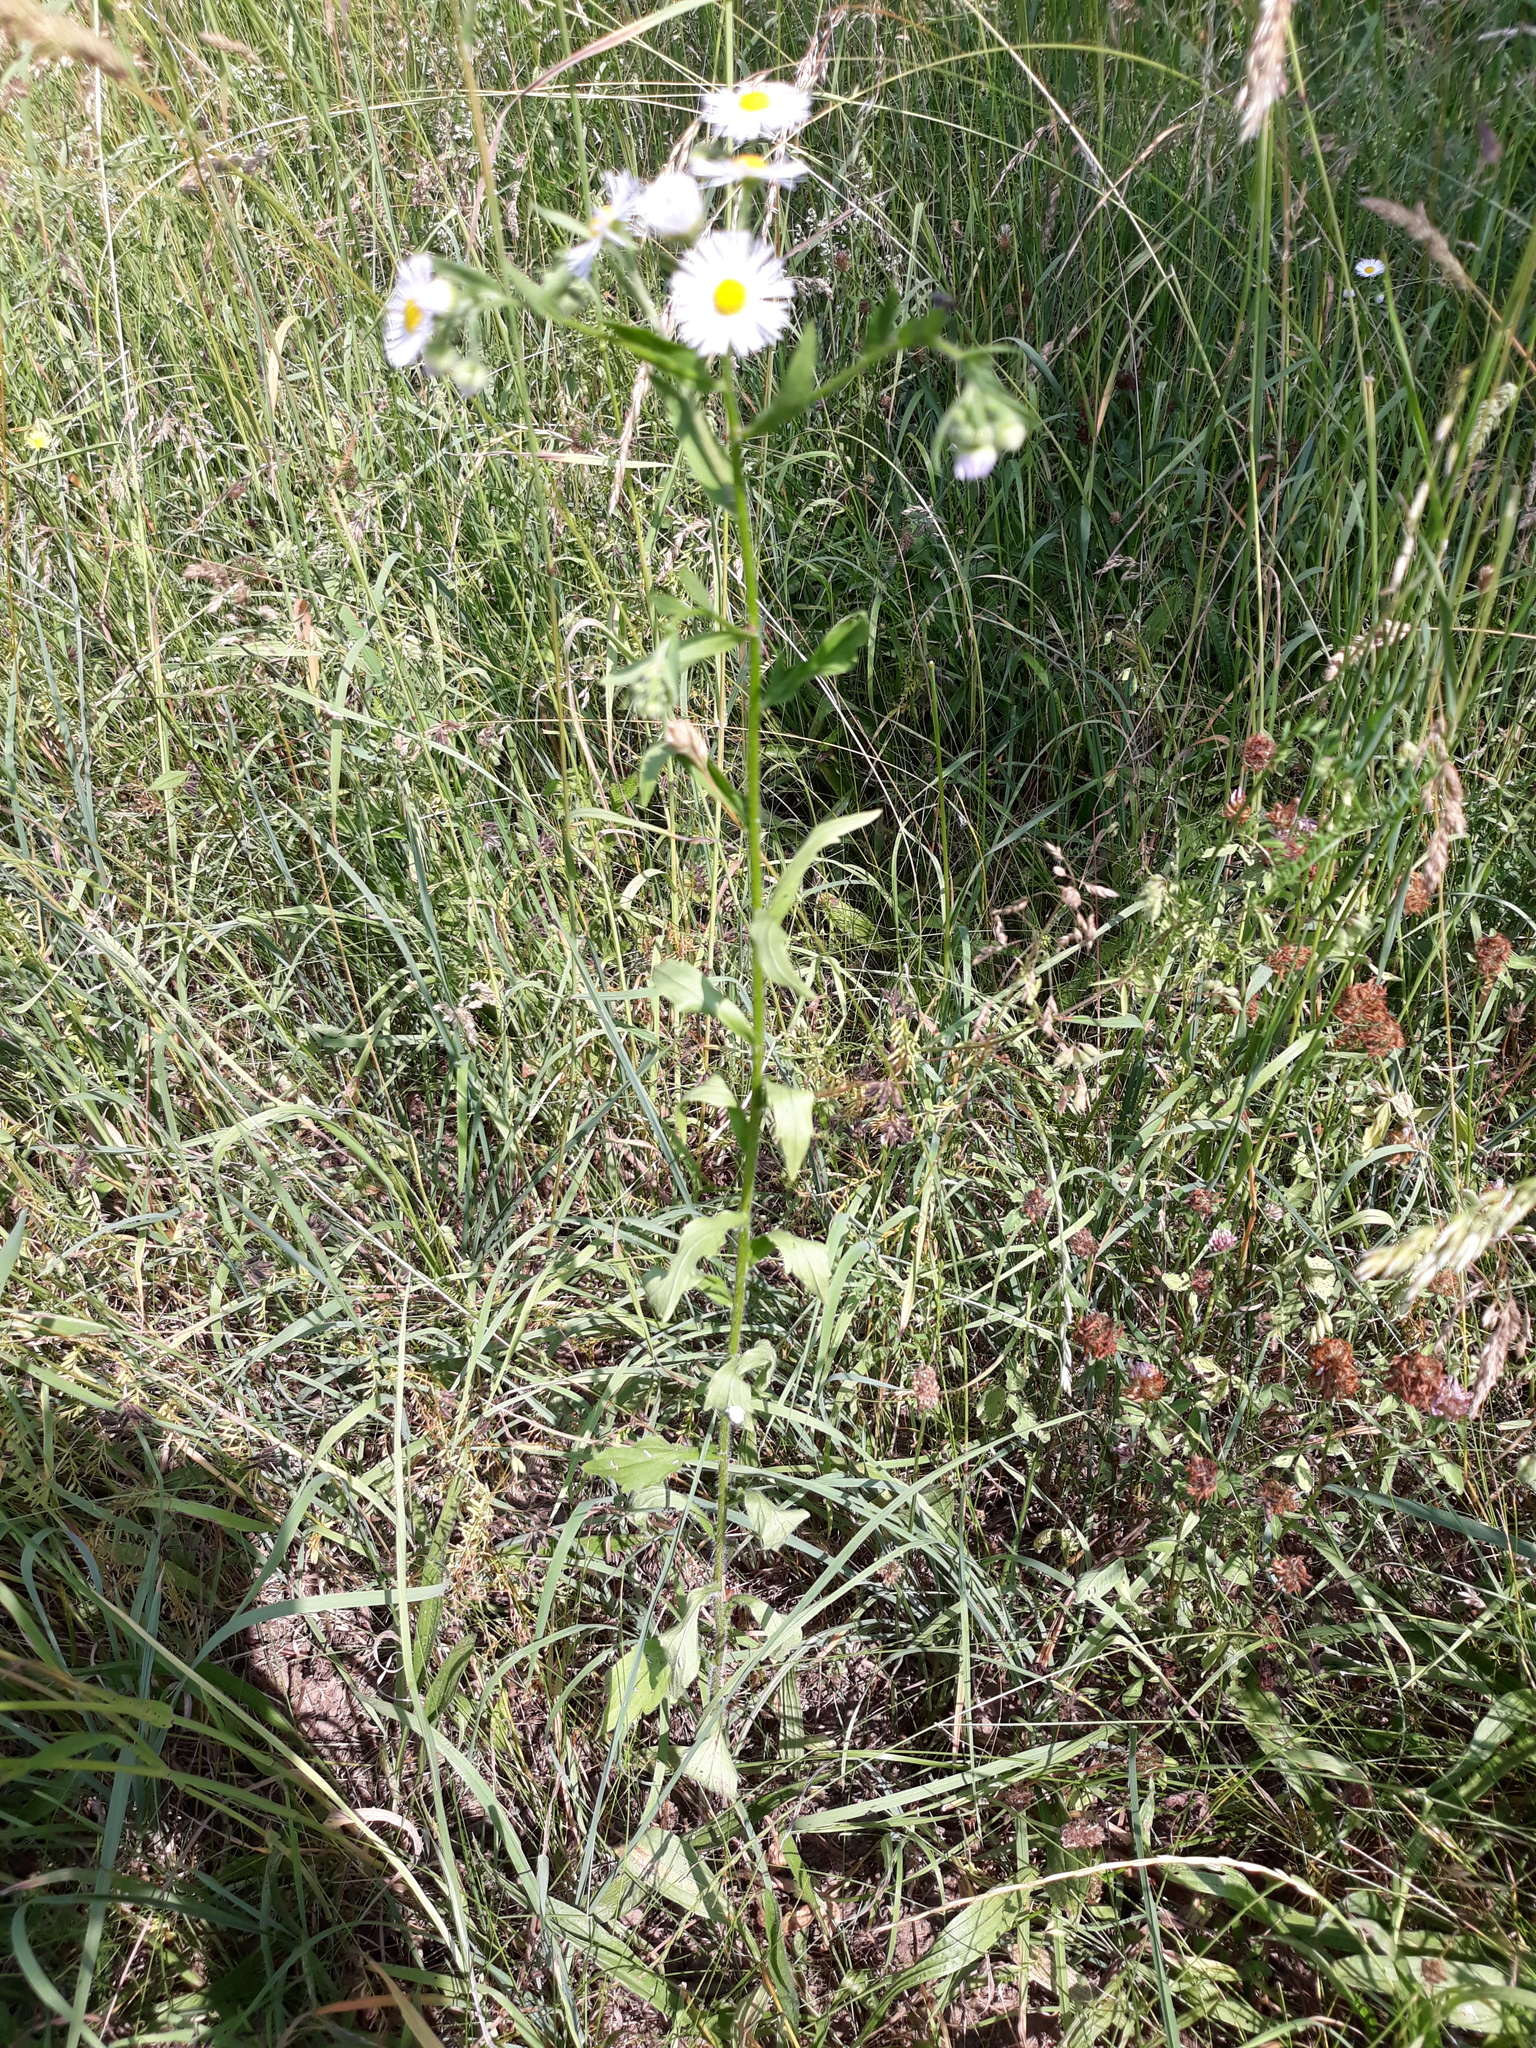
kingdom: Plantae
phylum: Tracheophyta
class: Magnoliopsida
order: Asterales
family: Asteraceae
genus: Erigeron
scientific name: Erigeron annuus
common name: Tall fleabane
